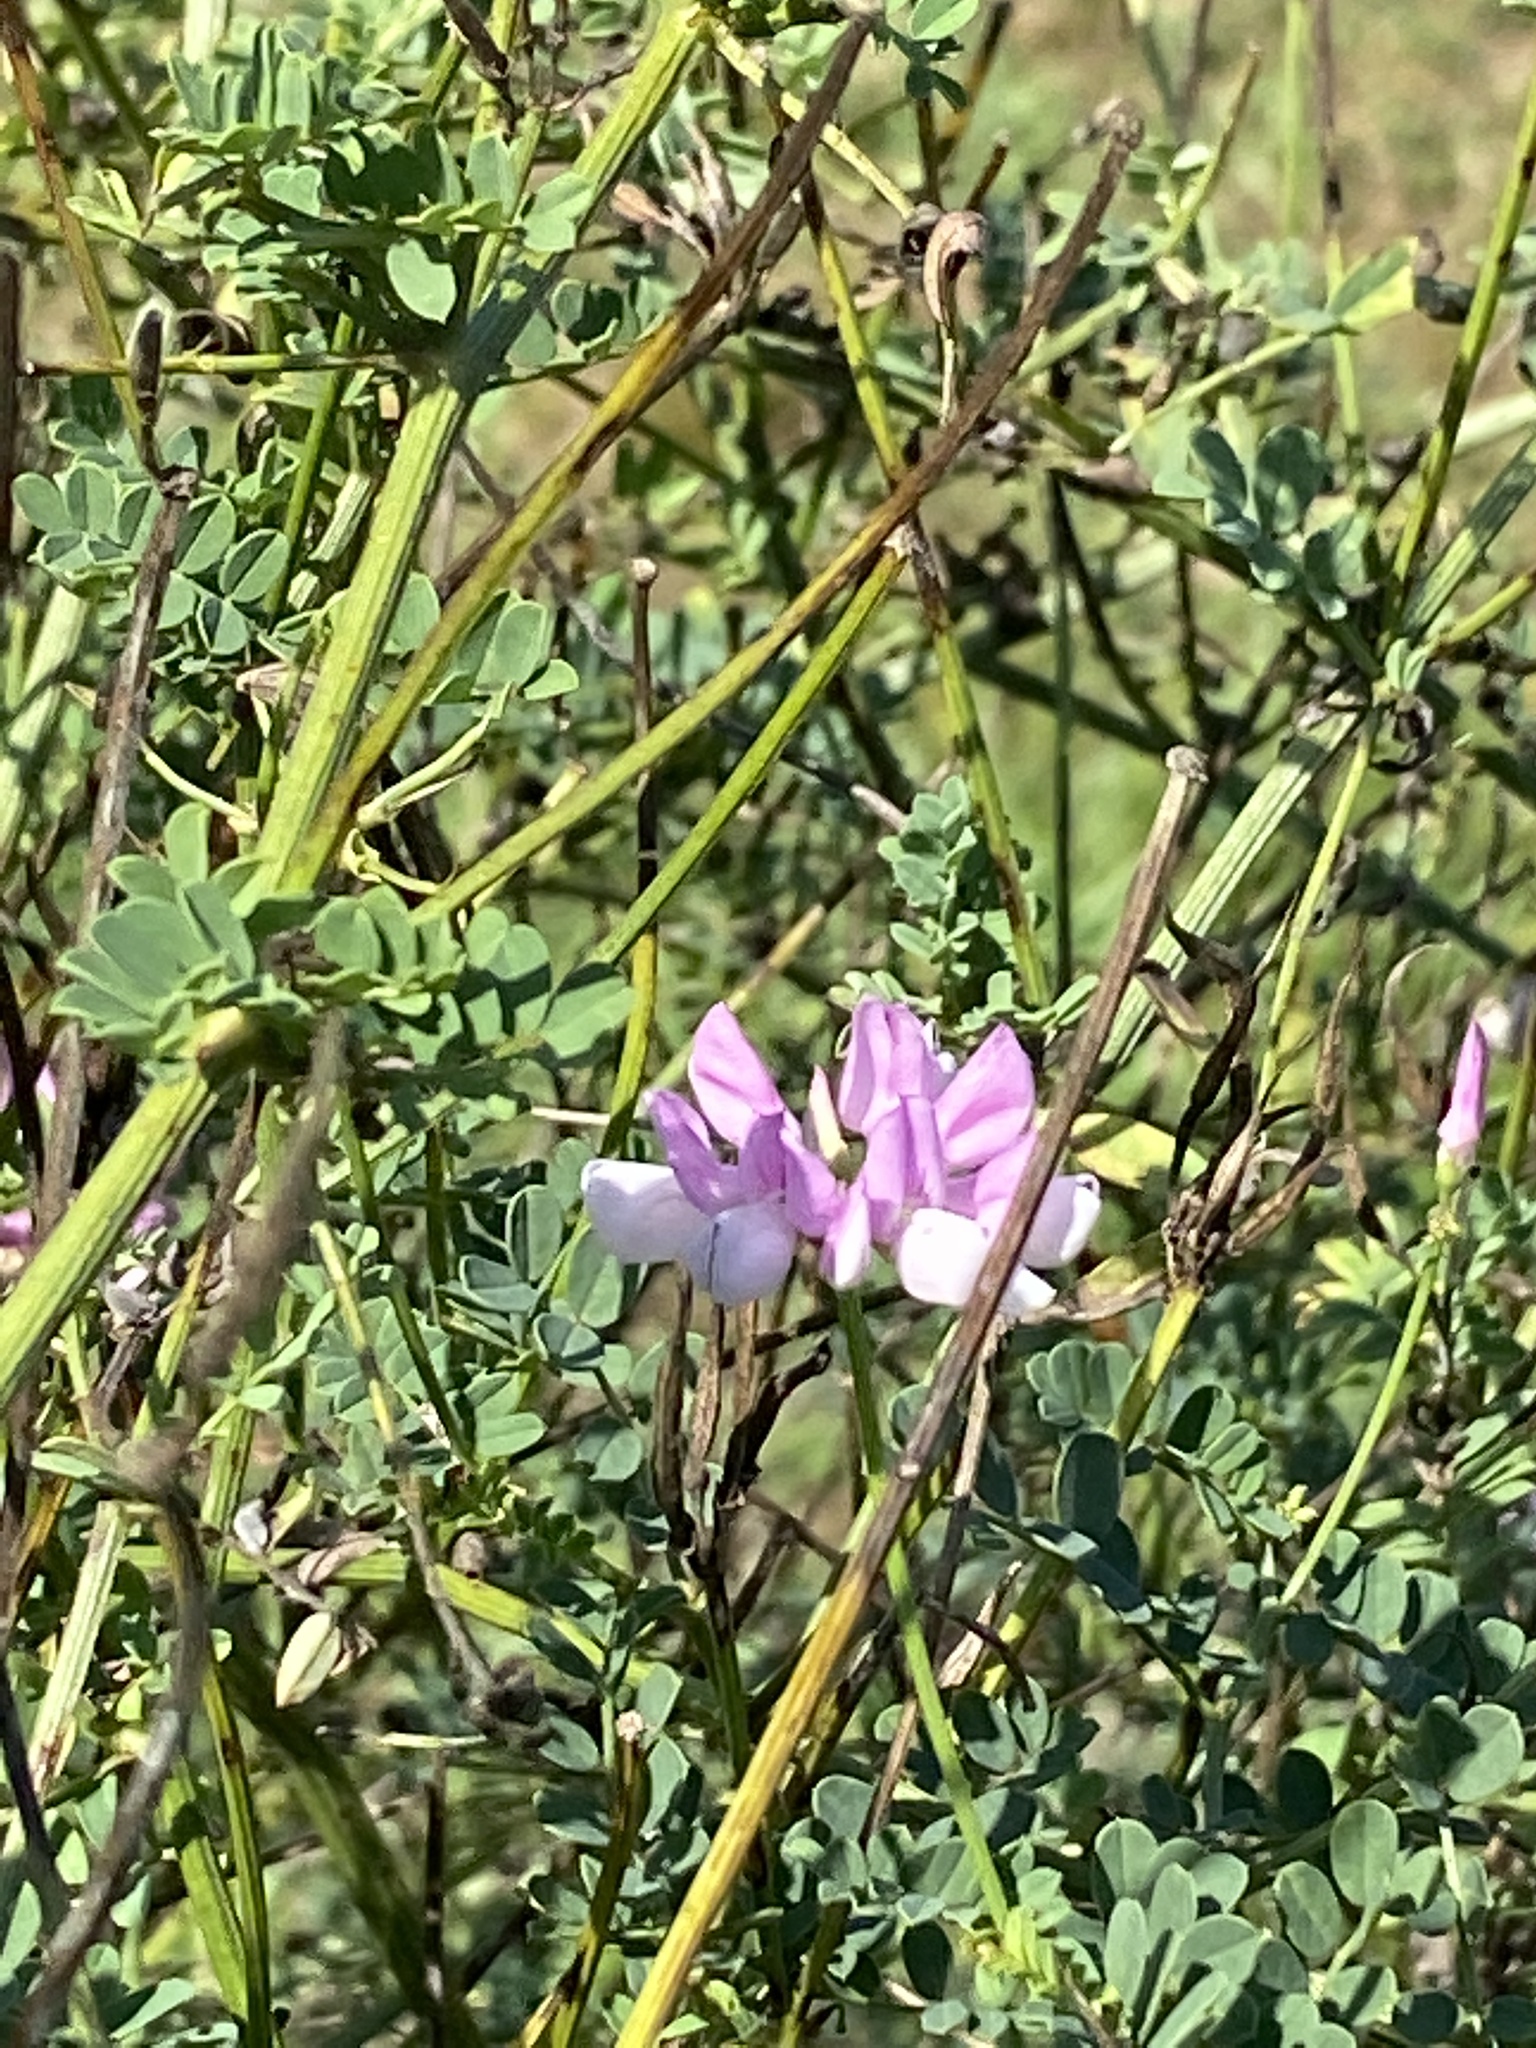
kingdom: Plantae
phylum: Tracheophyta
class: Magnoliopsida
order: Fabales
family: Fabaceae
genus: Coronilla
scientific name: Coronilla varia
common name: Crownvetch
